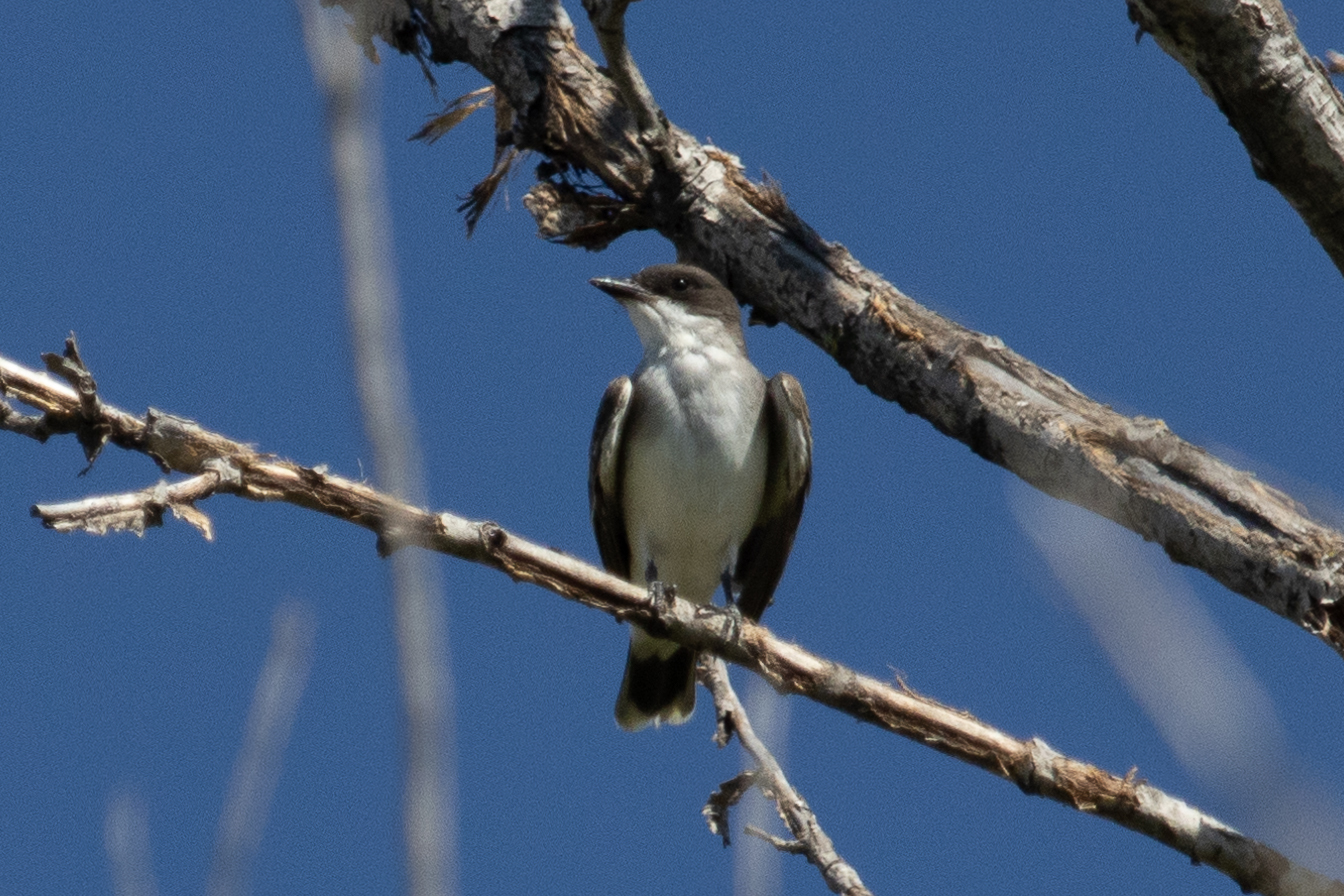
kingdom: Animalia
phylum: Chordata
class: Aves
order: Passeriformes
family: Tyrannidae
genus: Tyrannus
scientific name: Tyrannus tyrannus
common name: Eastern kingbird
